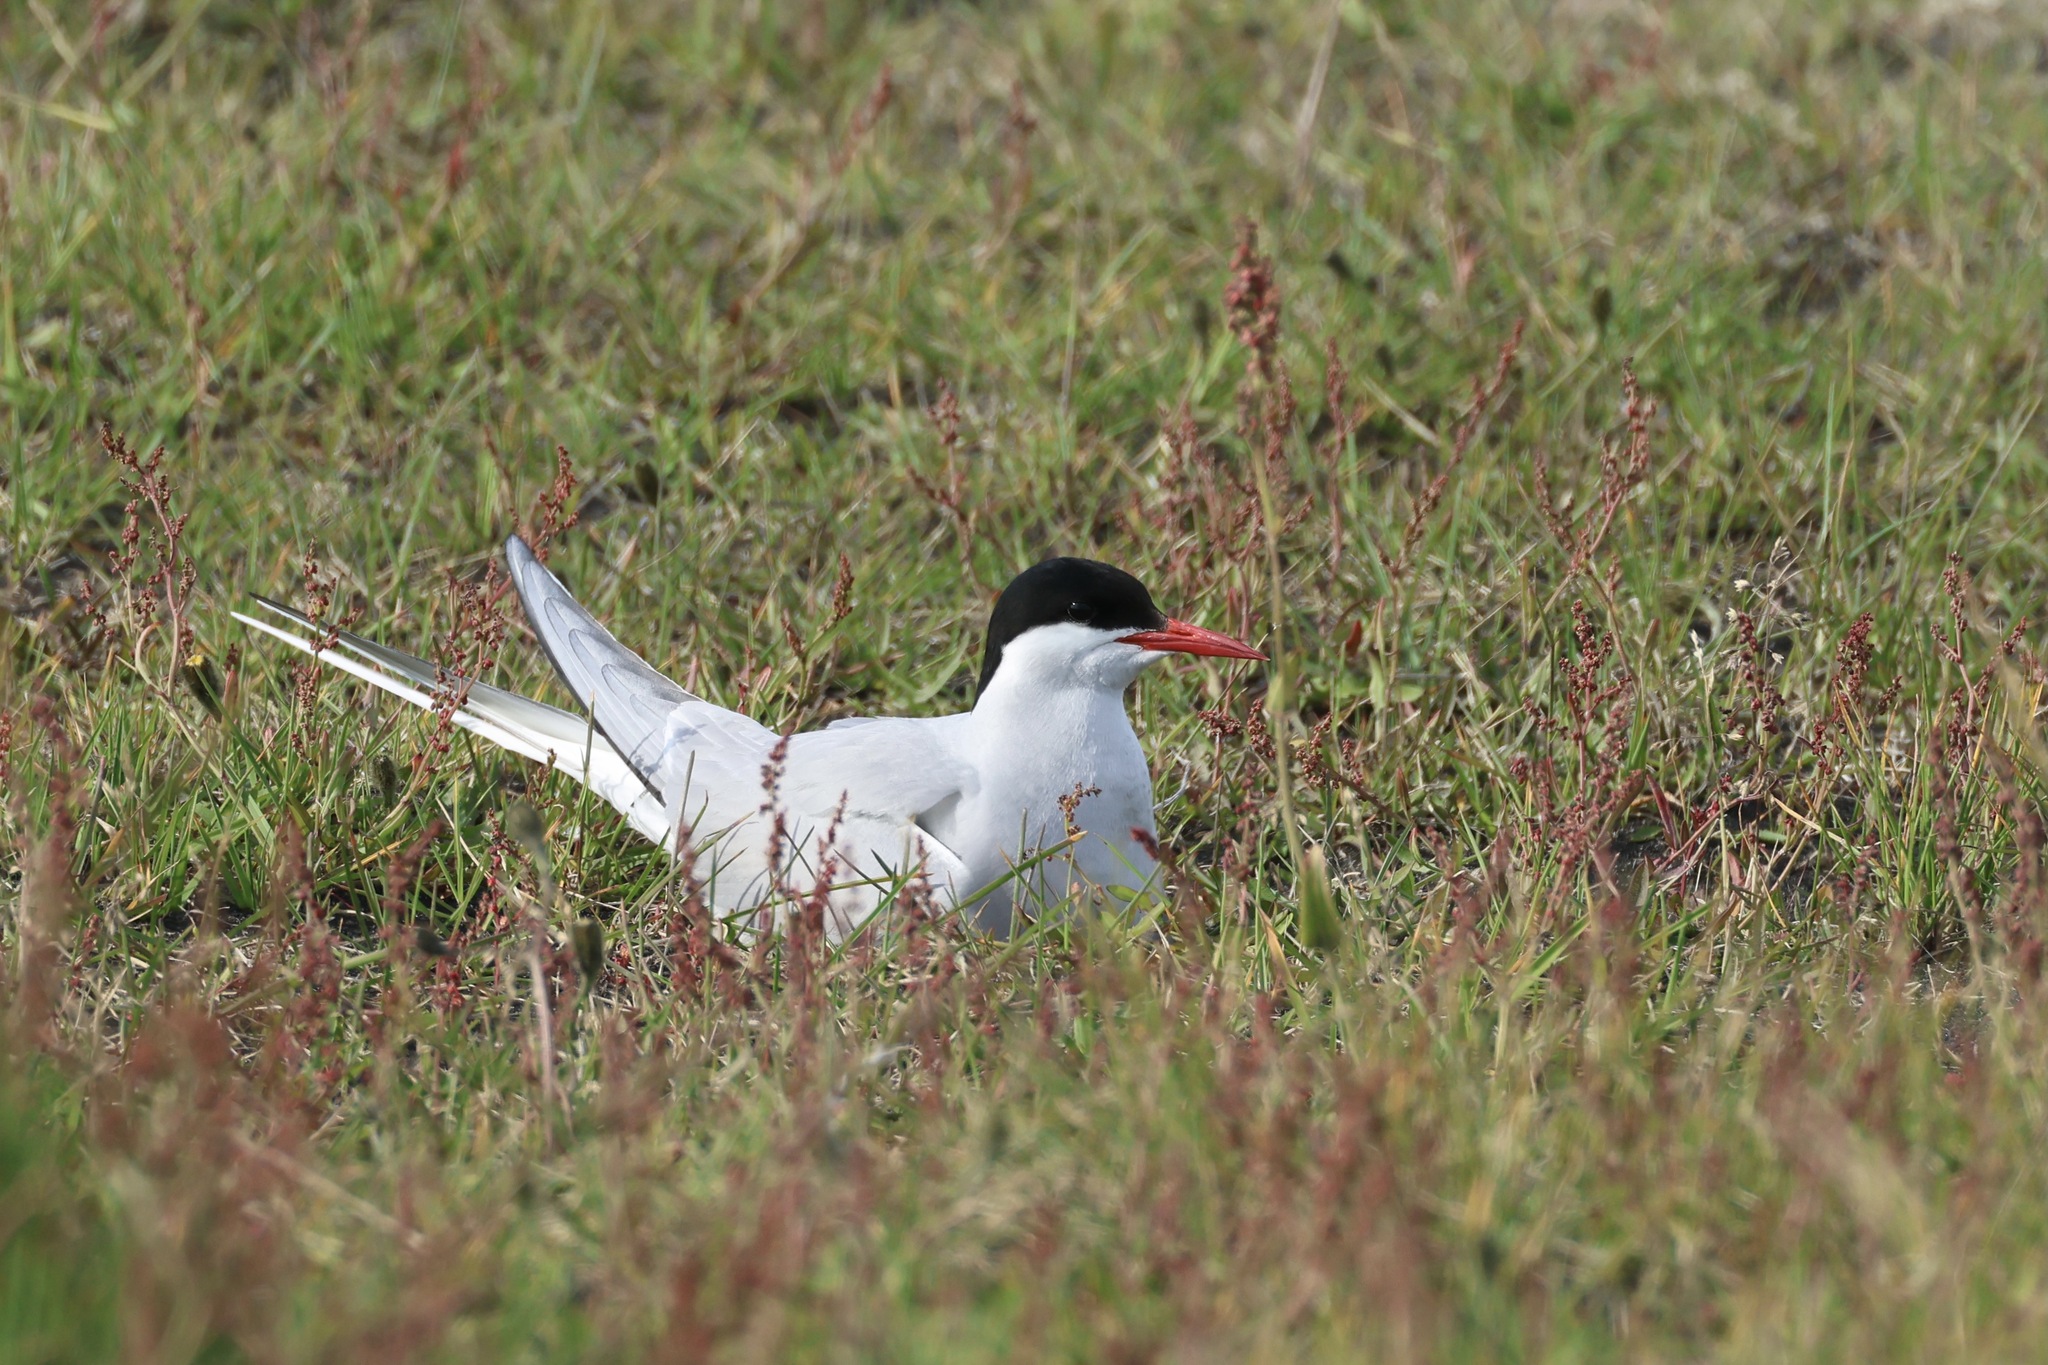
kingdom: Animalia
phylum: Chordata
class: Aves
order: Charadriiformes
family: Laridae
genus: Sterna
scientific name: Sterna paradisaea
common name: Arctic tern
